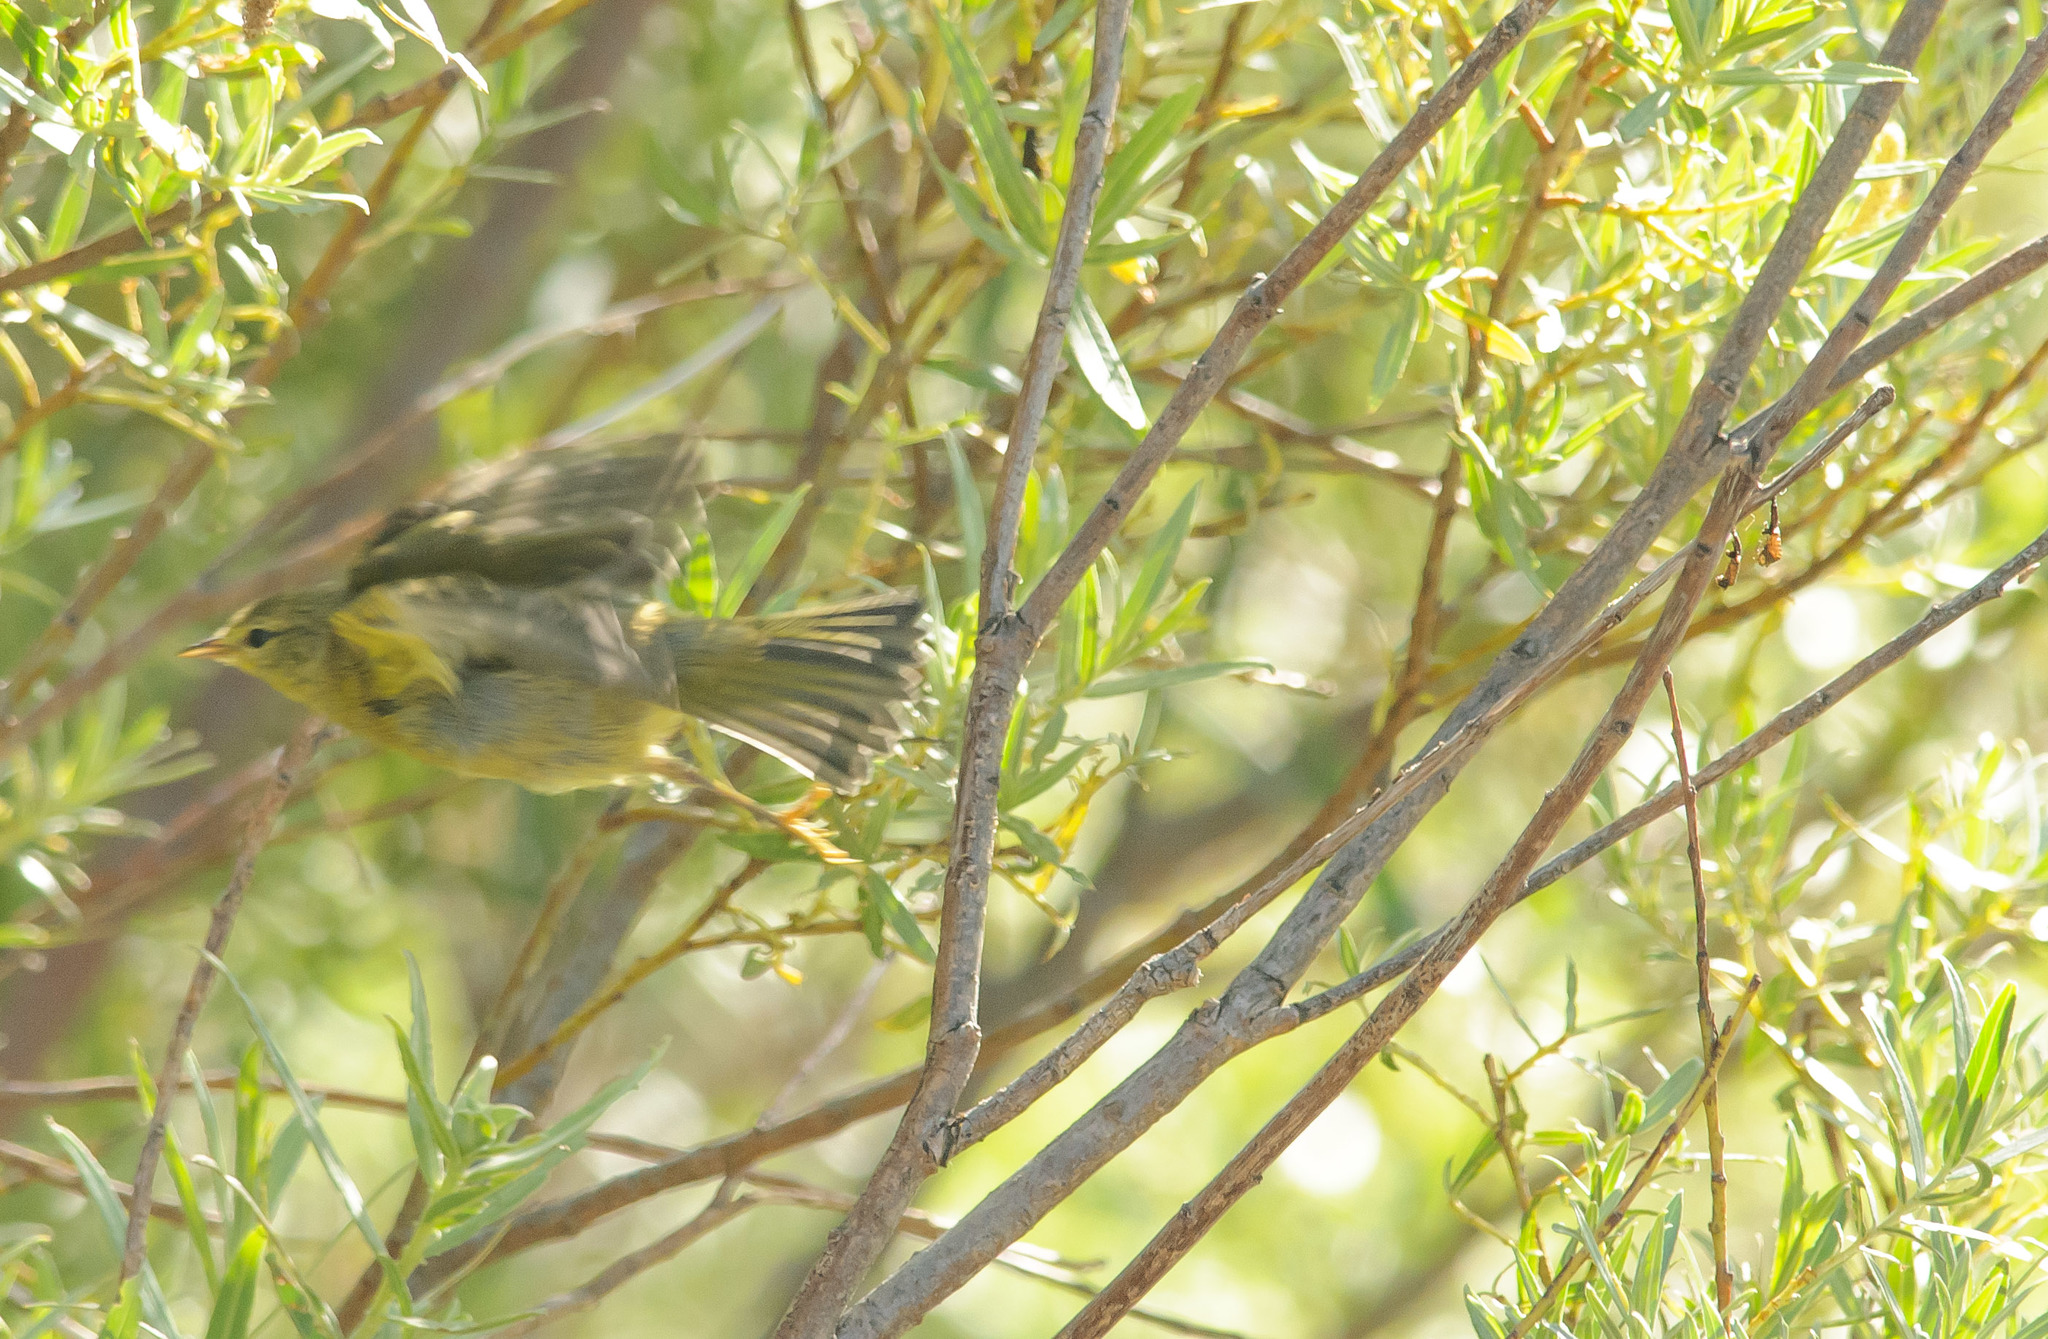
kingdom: Animalia
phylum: Chordata
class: Aves
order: Passeriformes
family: Parulidae
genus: Leiothlypis
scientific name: Leiothlypis celata
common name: Orange-crowned warbler
